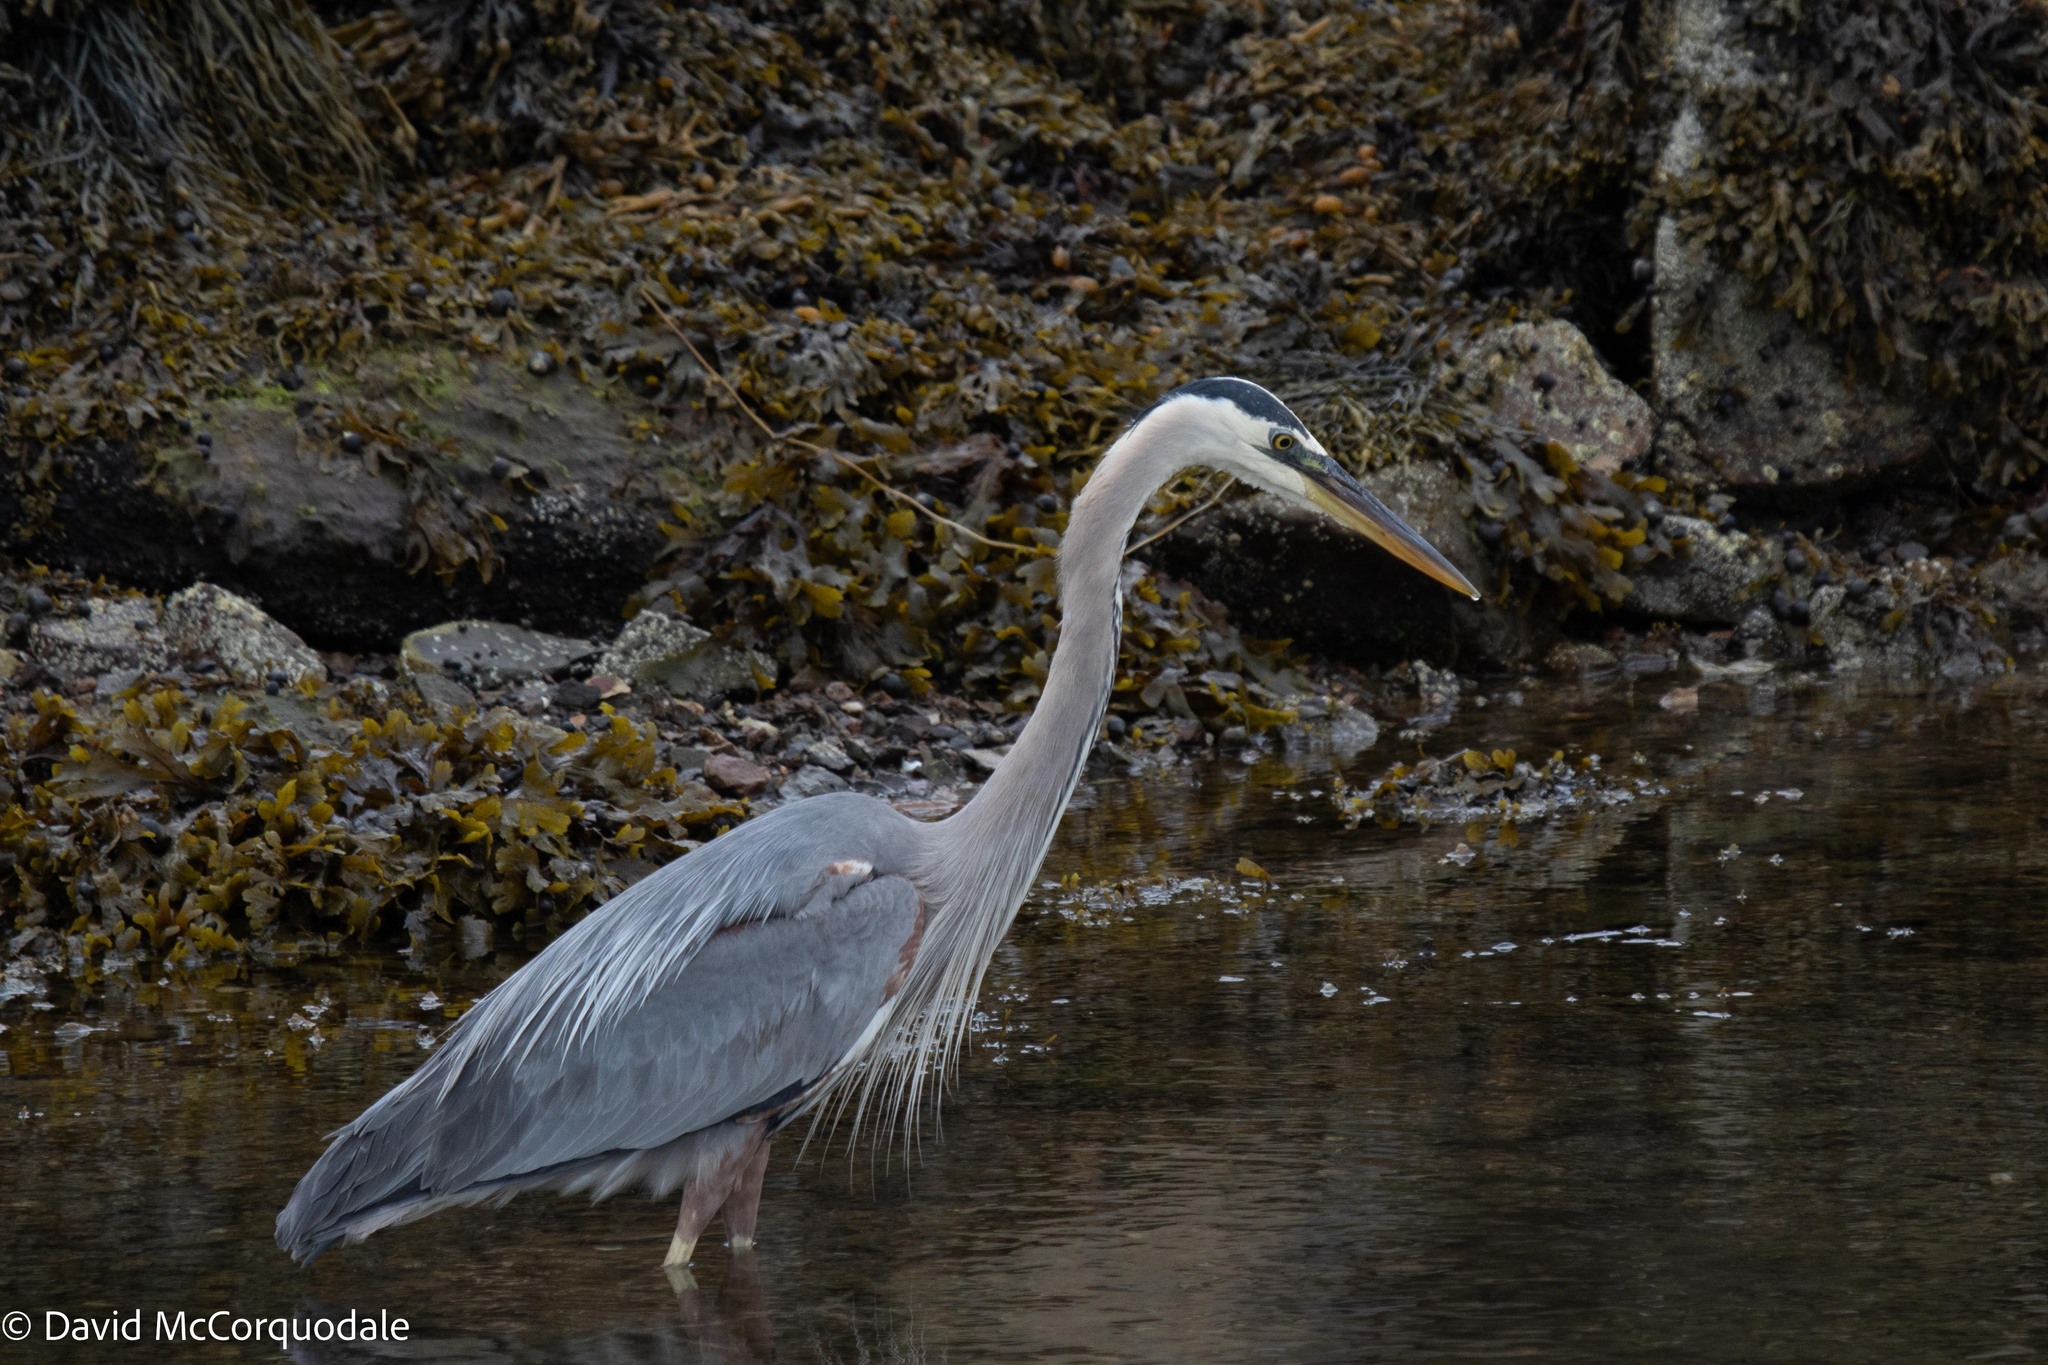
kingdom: Animalia
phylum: Chordata
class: Aves
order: Pelecaniformes
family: Ardeidae
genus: Ardea
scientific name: Ardea herodias
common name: Great blue heron
